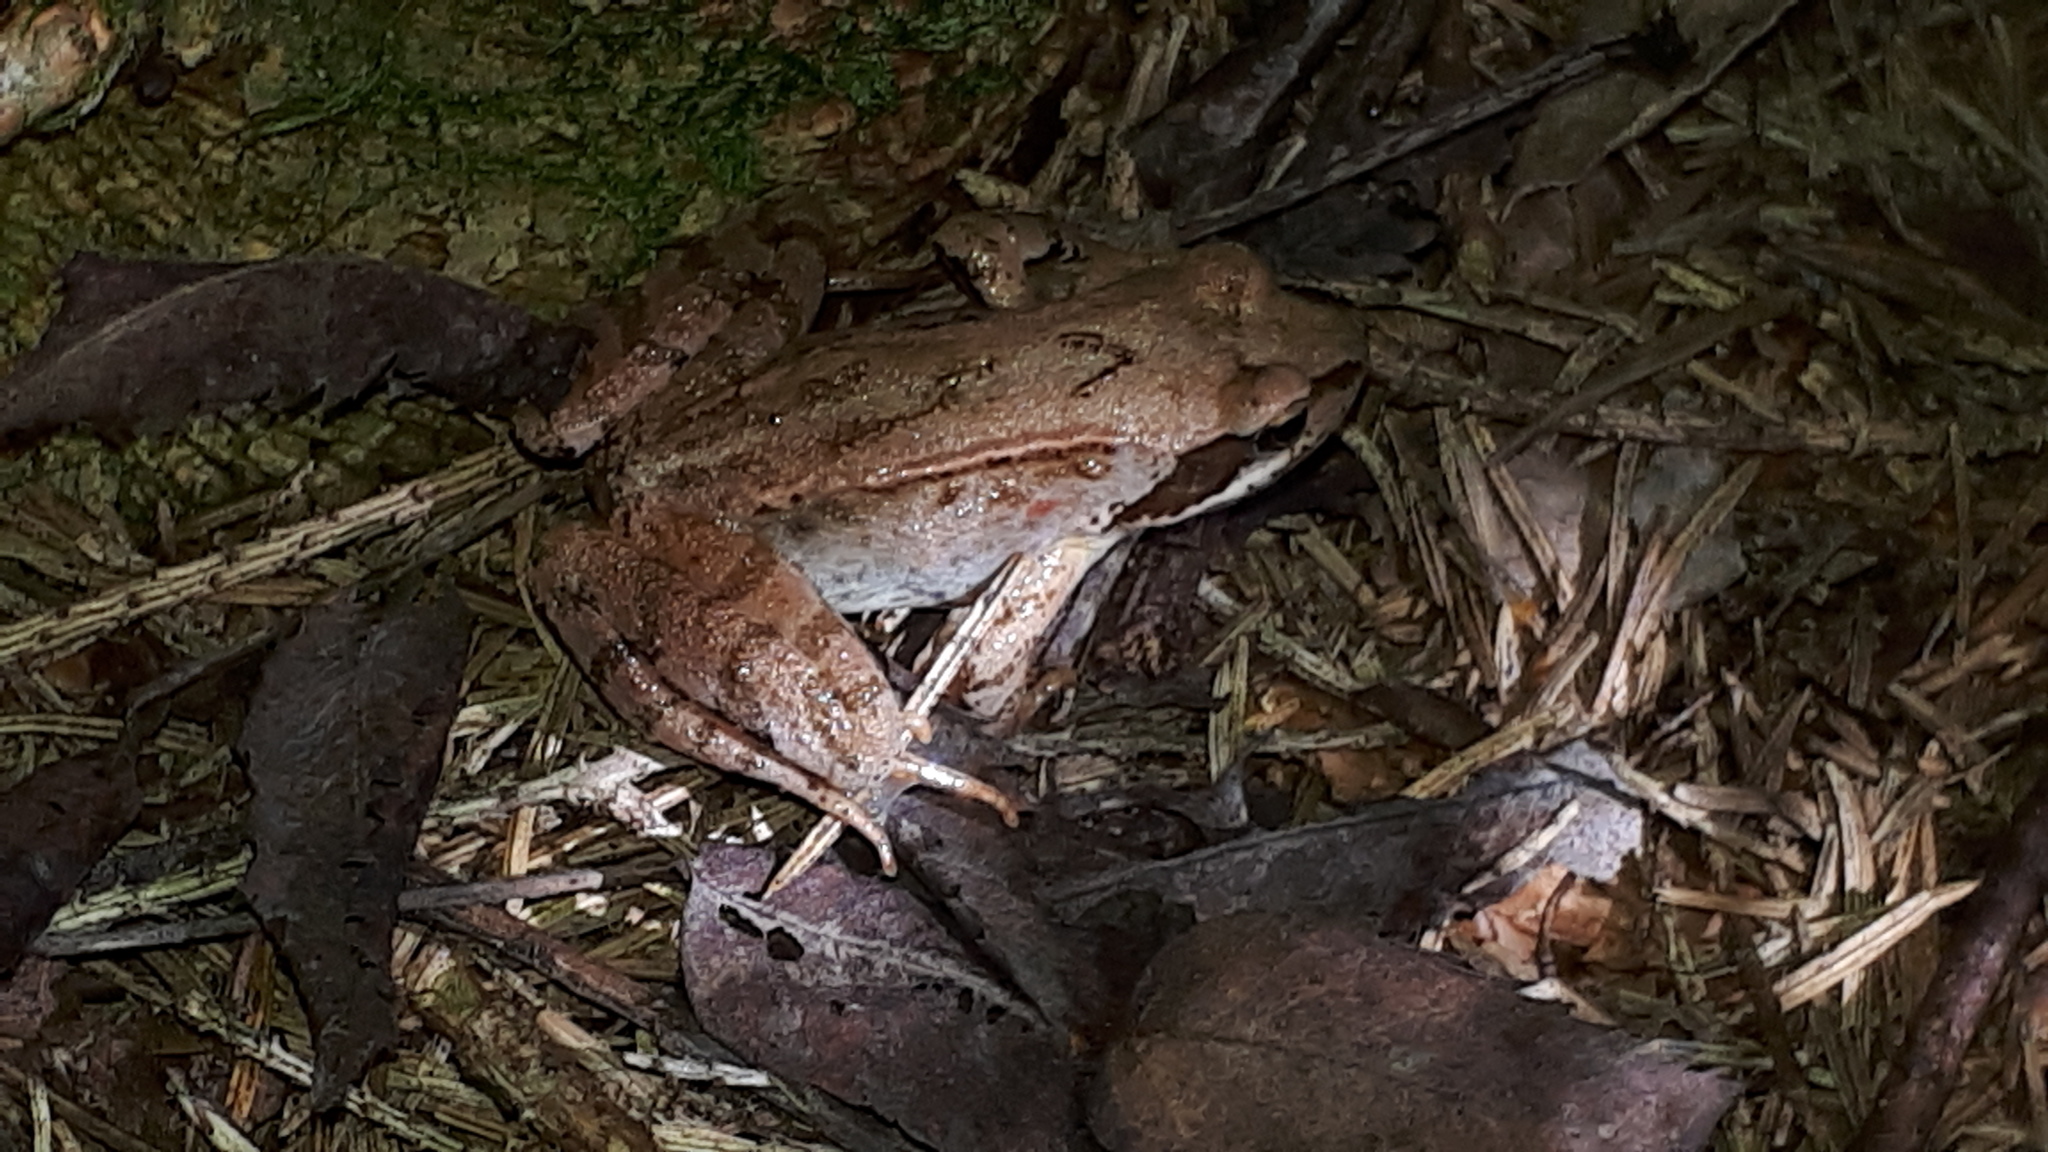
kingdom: Animalia
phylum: Chordata
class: Amphibia
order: Anura
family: Ranidae
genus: Rana
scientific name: Rana temporaria
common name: Common frog
